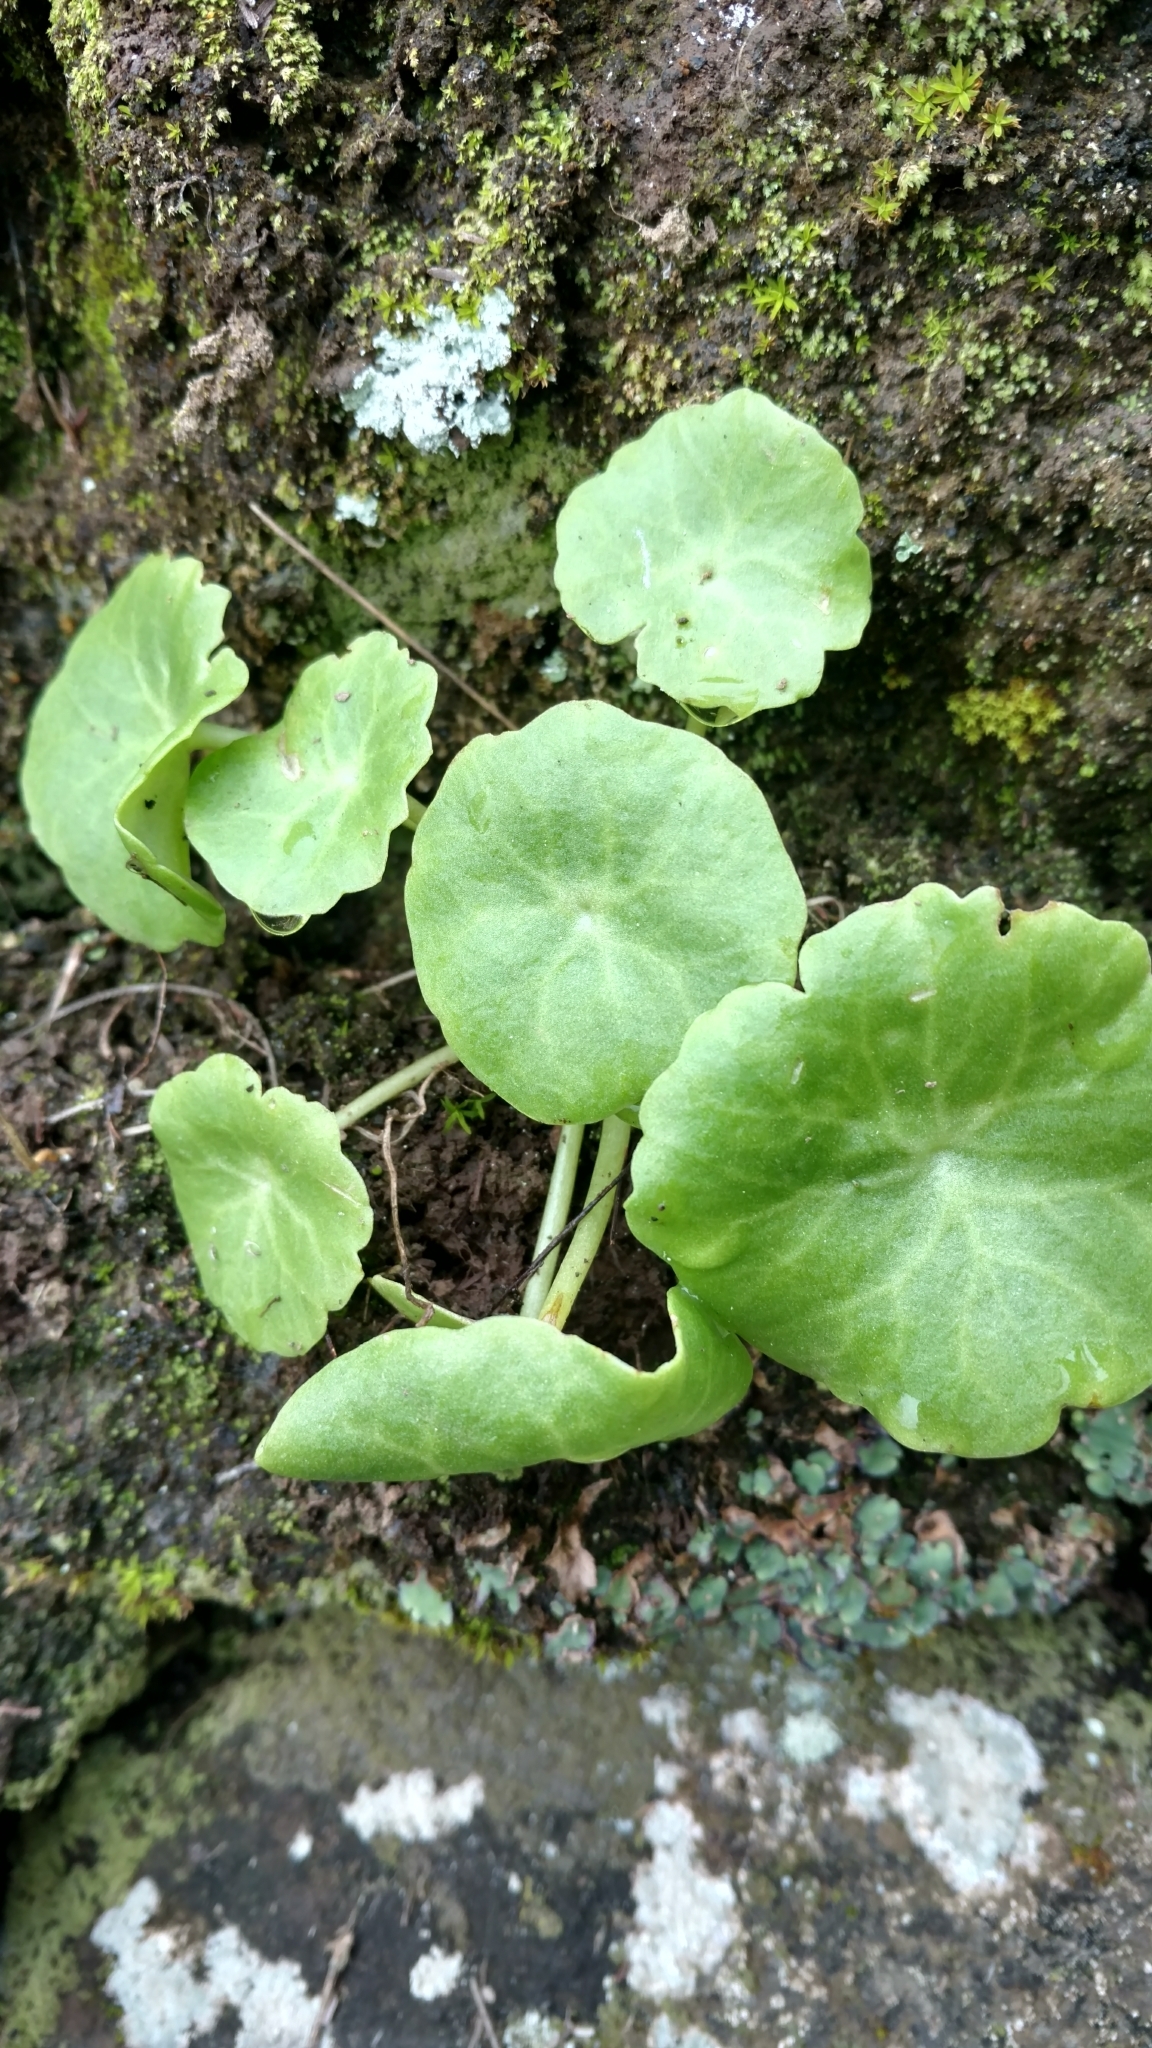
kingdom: Plantae
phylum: Tracheophyta
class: Magnoliopsida
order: Saxifragales
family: Crassulaceae
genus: Umbilicus
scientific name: Umbilicus schmidtii
